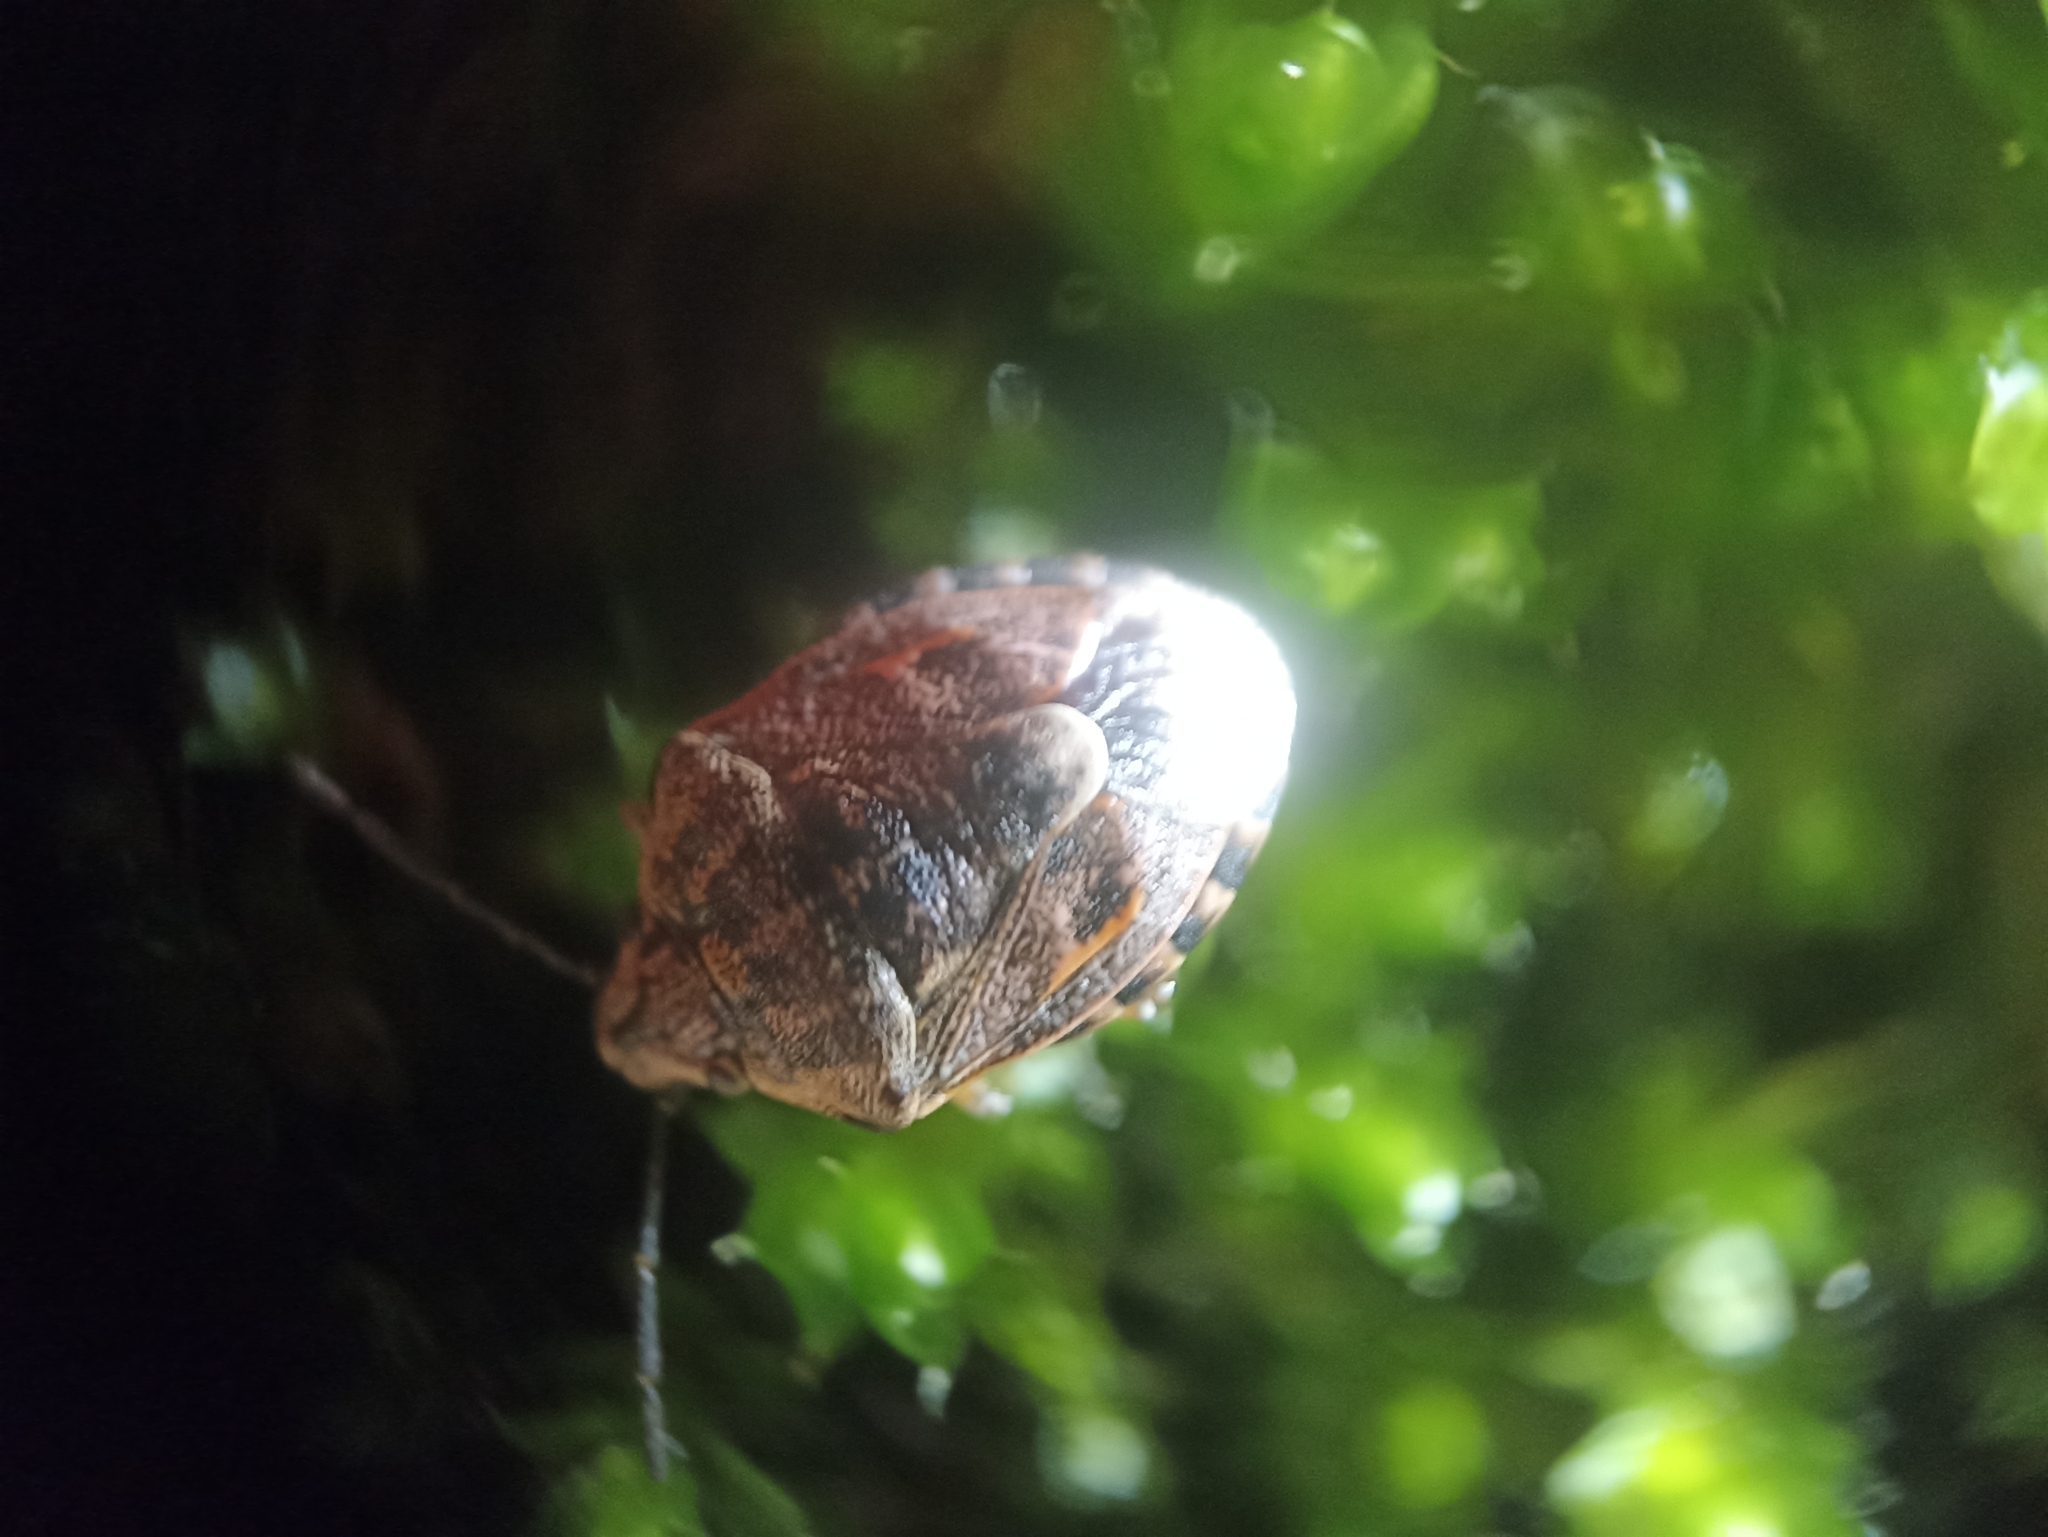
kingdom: Animalia
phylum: Arthropoda
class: Insecta
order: Hemiptera
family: Pentatomidae
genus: Holcogaster
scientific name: Holcogaster fibulata
